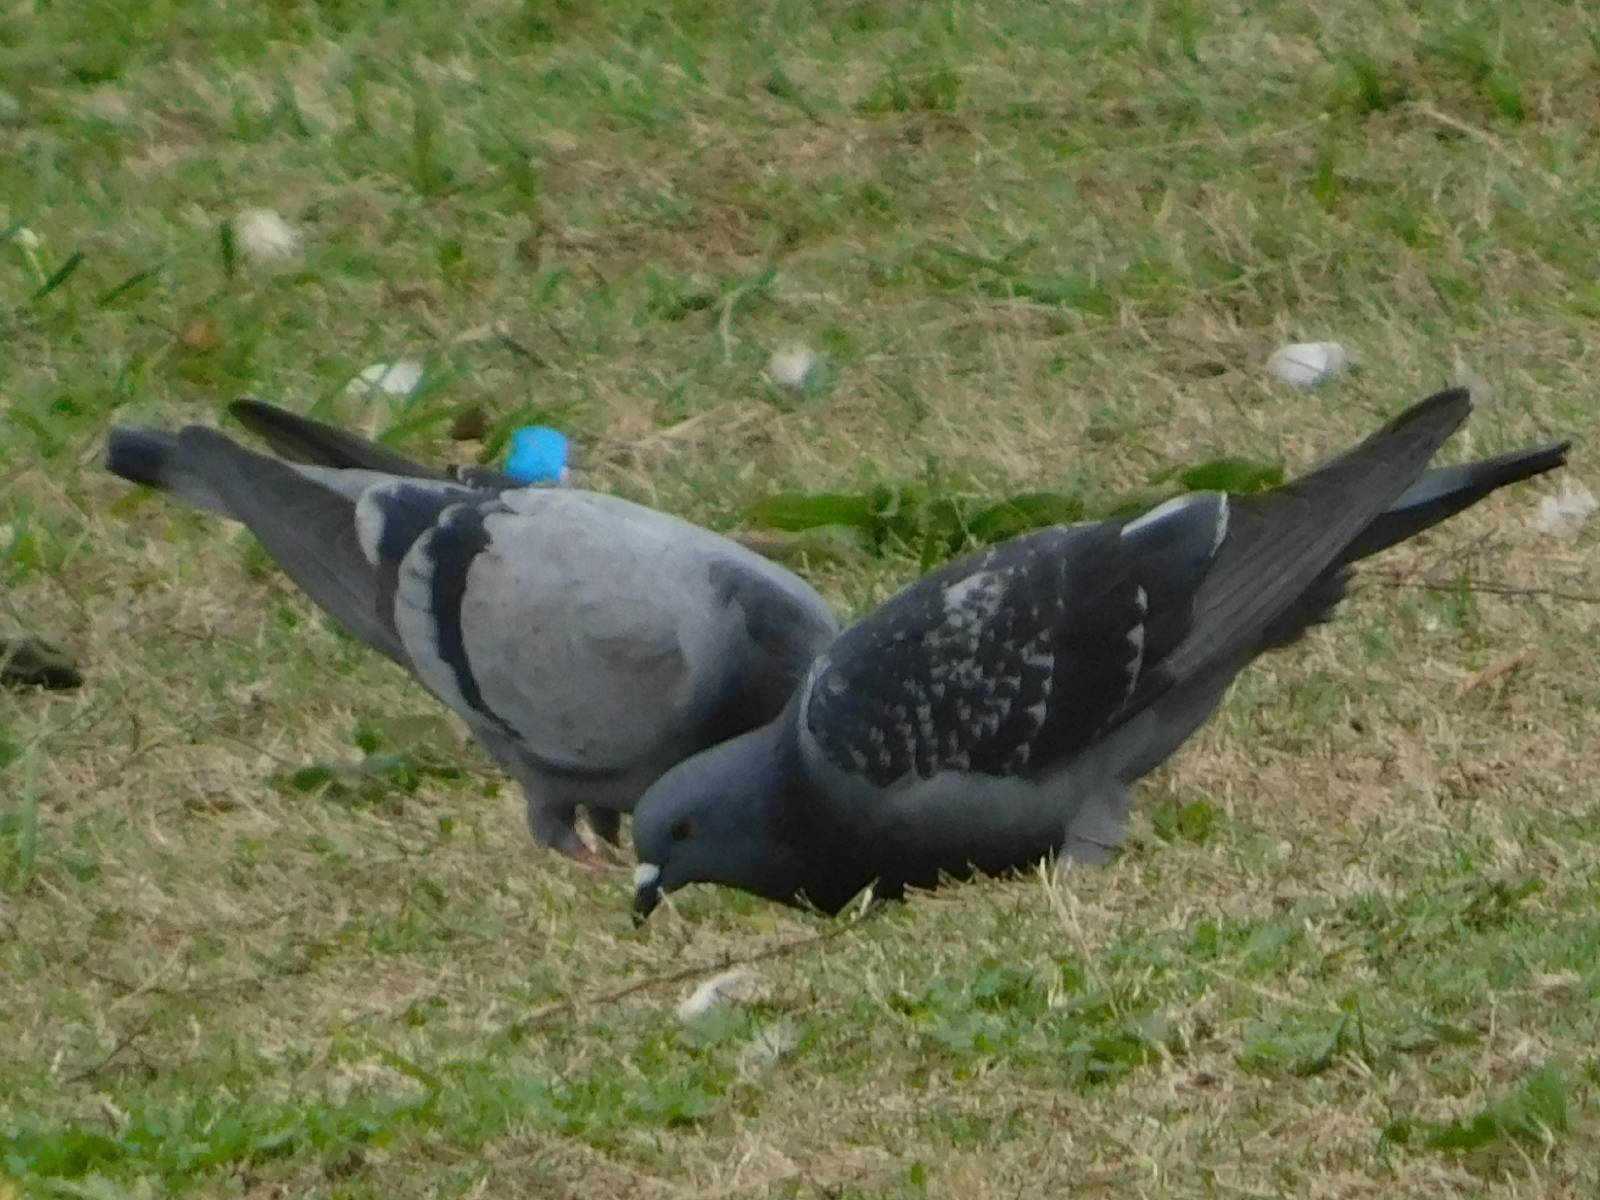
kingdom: Animalia
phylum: Chordata
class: Aves
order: Columbiformes
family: Columbidae
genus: Columba
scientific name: Columba livia
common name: Rock pigeon
